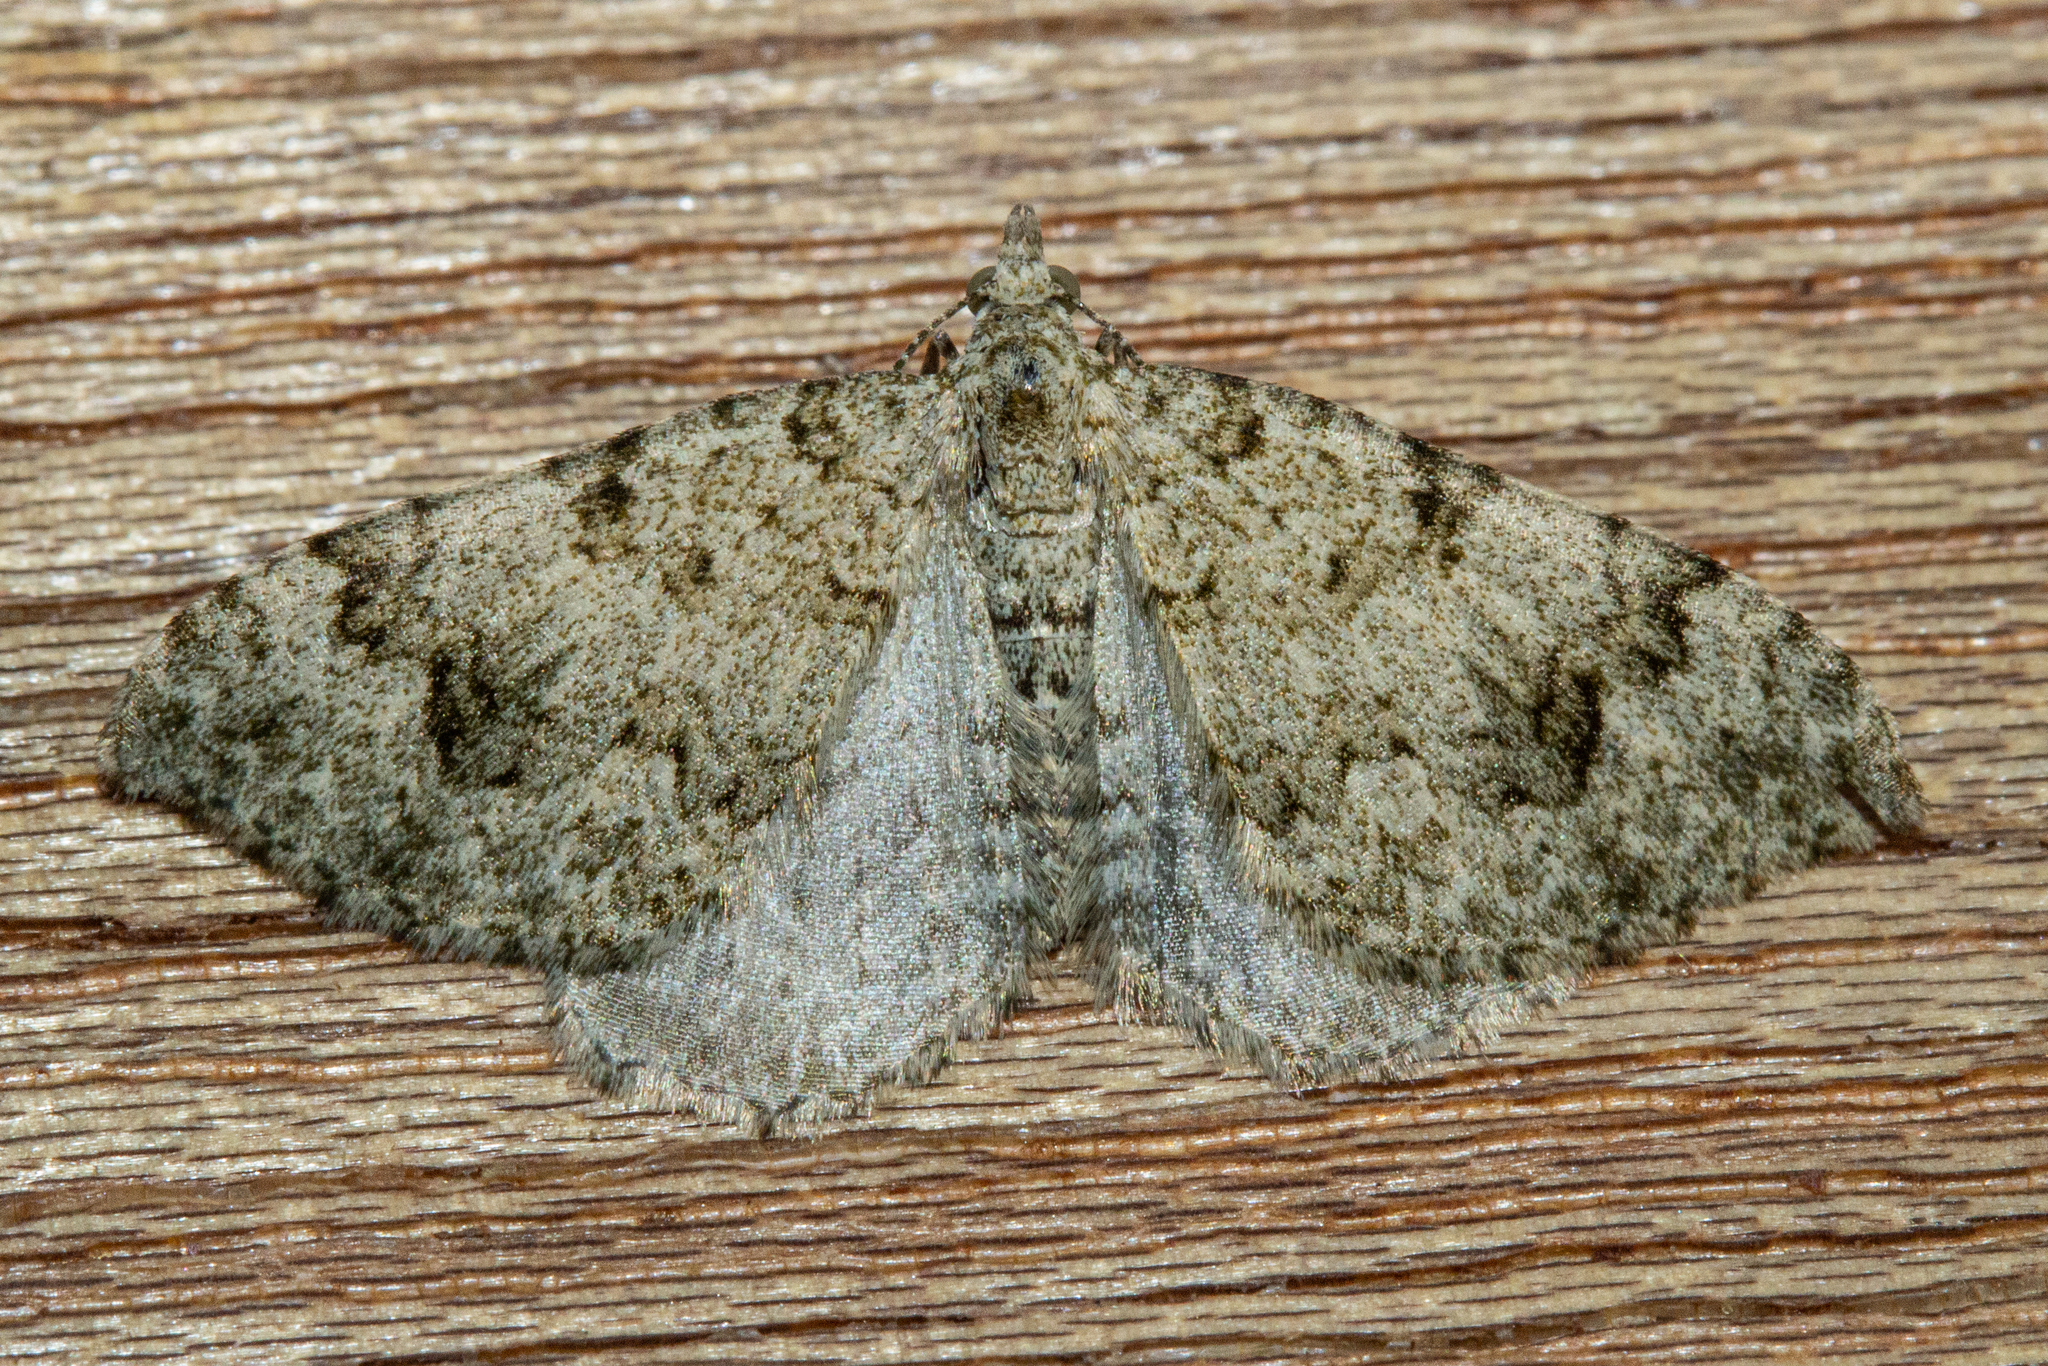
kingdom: Animalia
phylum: Arthropoda
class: Insecta
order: Lepidoptera
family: Geometridae
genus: Helastia
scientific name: Helastia cinerearia
